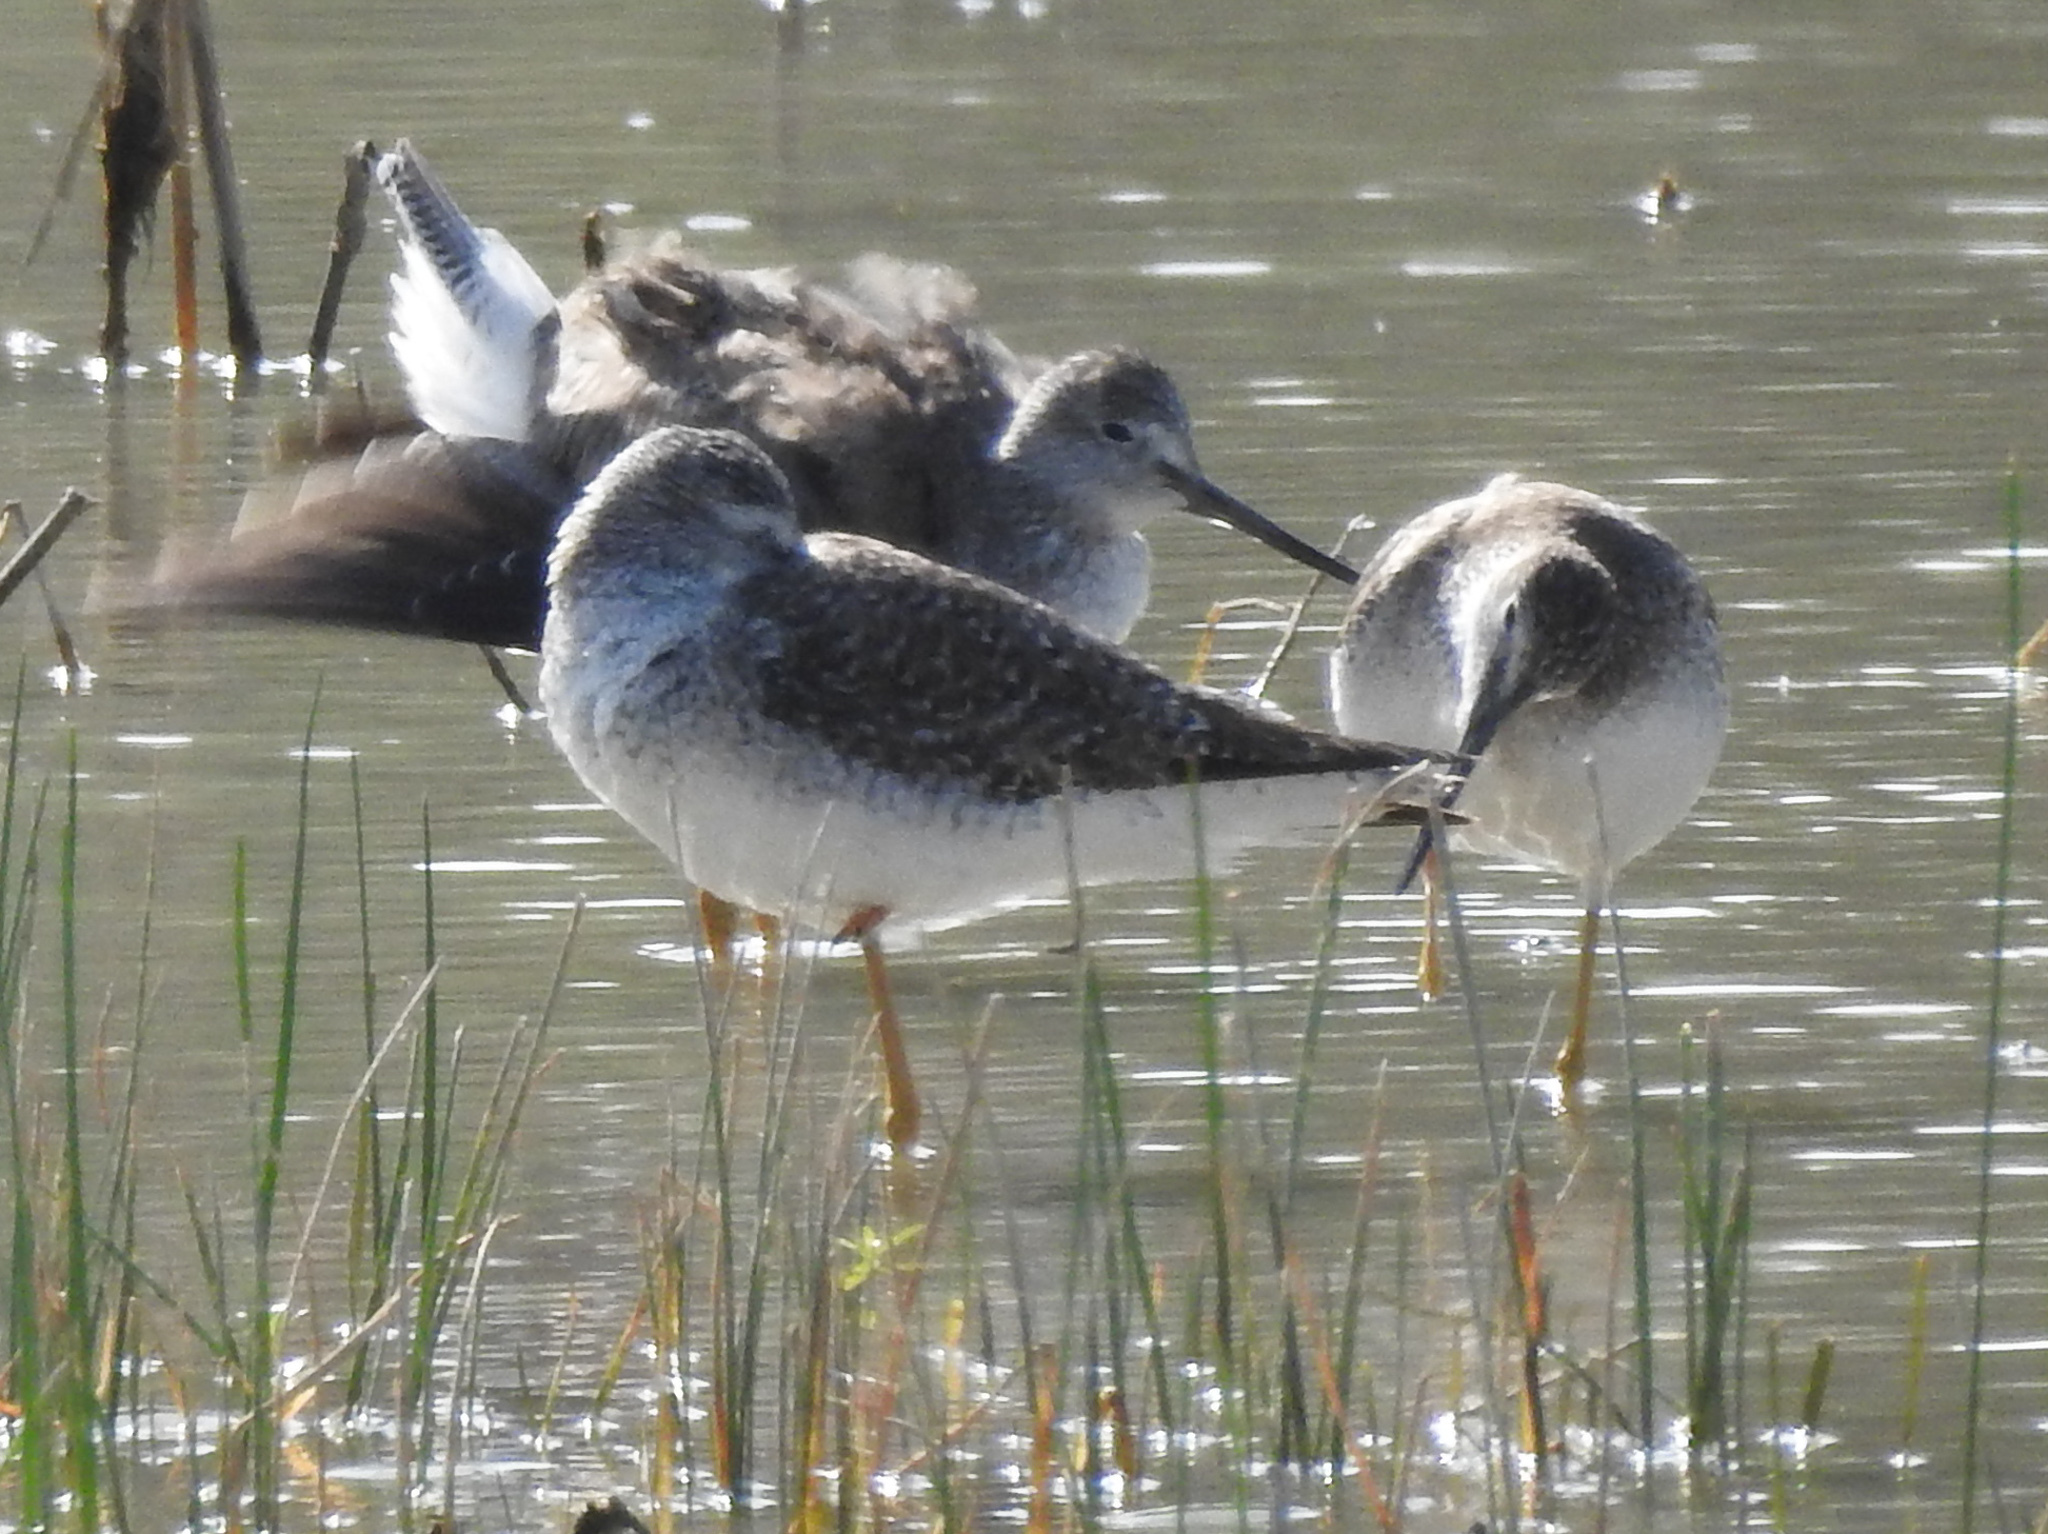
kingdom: Animalia
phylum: Chordata
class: Aves
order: Charadriiformes
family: Scolopacidae
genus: Tringa
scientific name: Tringa melanoleuca
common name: Greater yellowlegs
